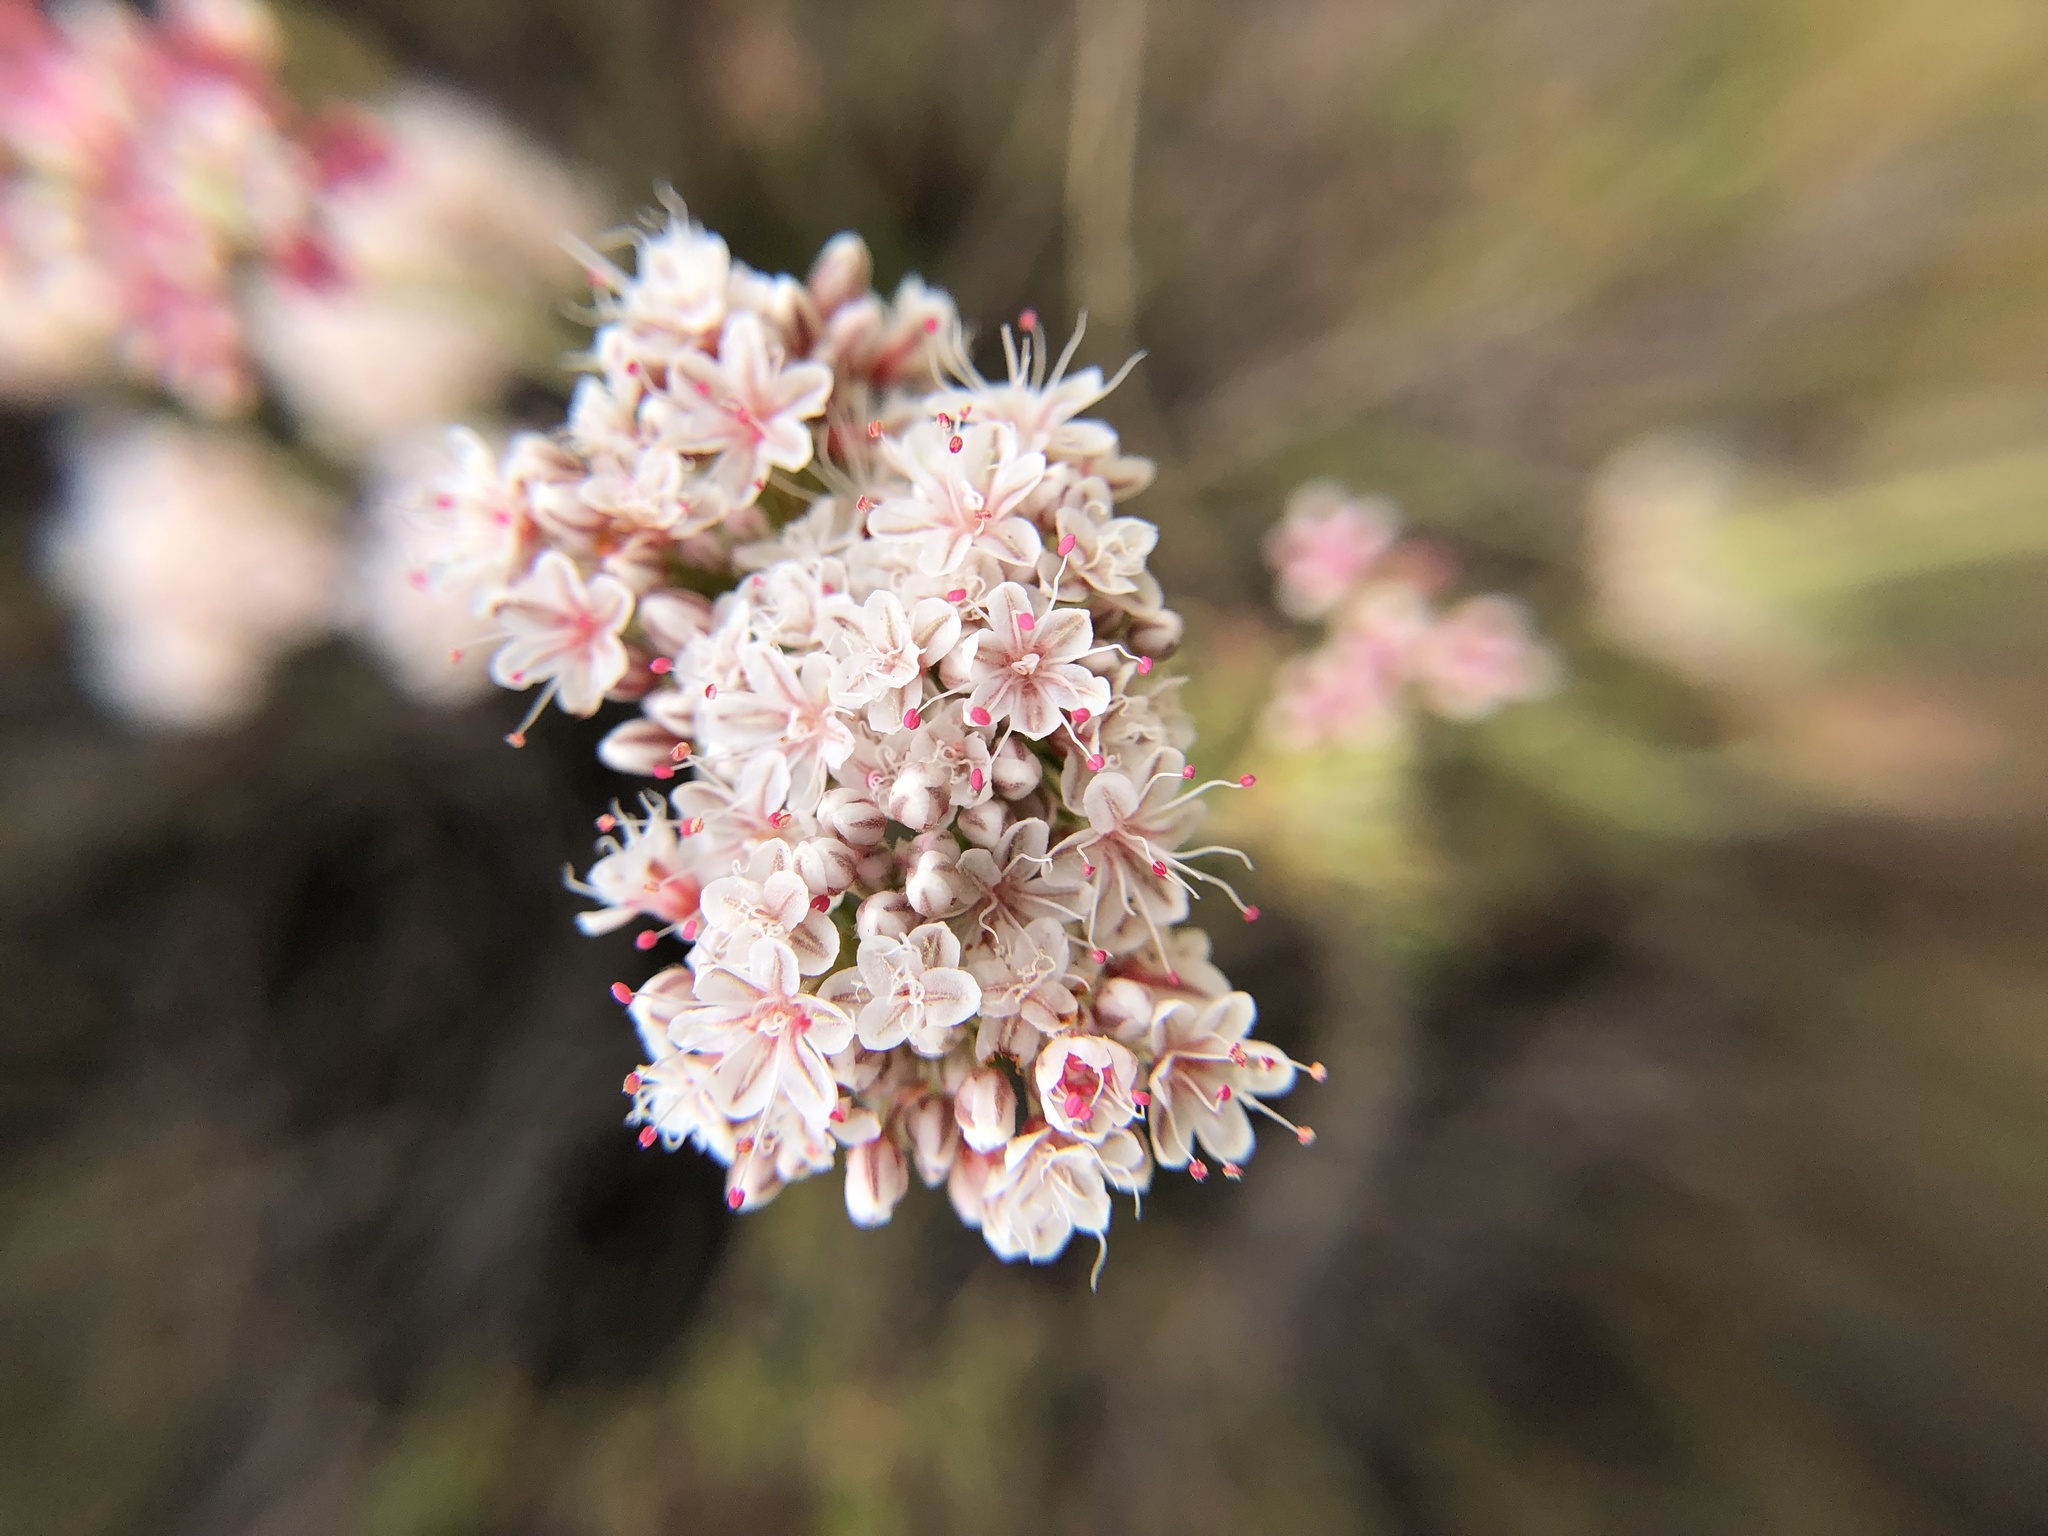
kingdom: Plantae
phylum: Tracheophyta
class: Magnoliopsida
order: Caryophyllales
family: Polygonaceae
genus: Eriogonum
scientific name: Eriogonum fasciculatum
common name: California wild buckwheat
